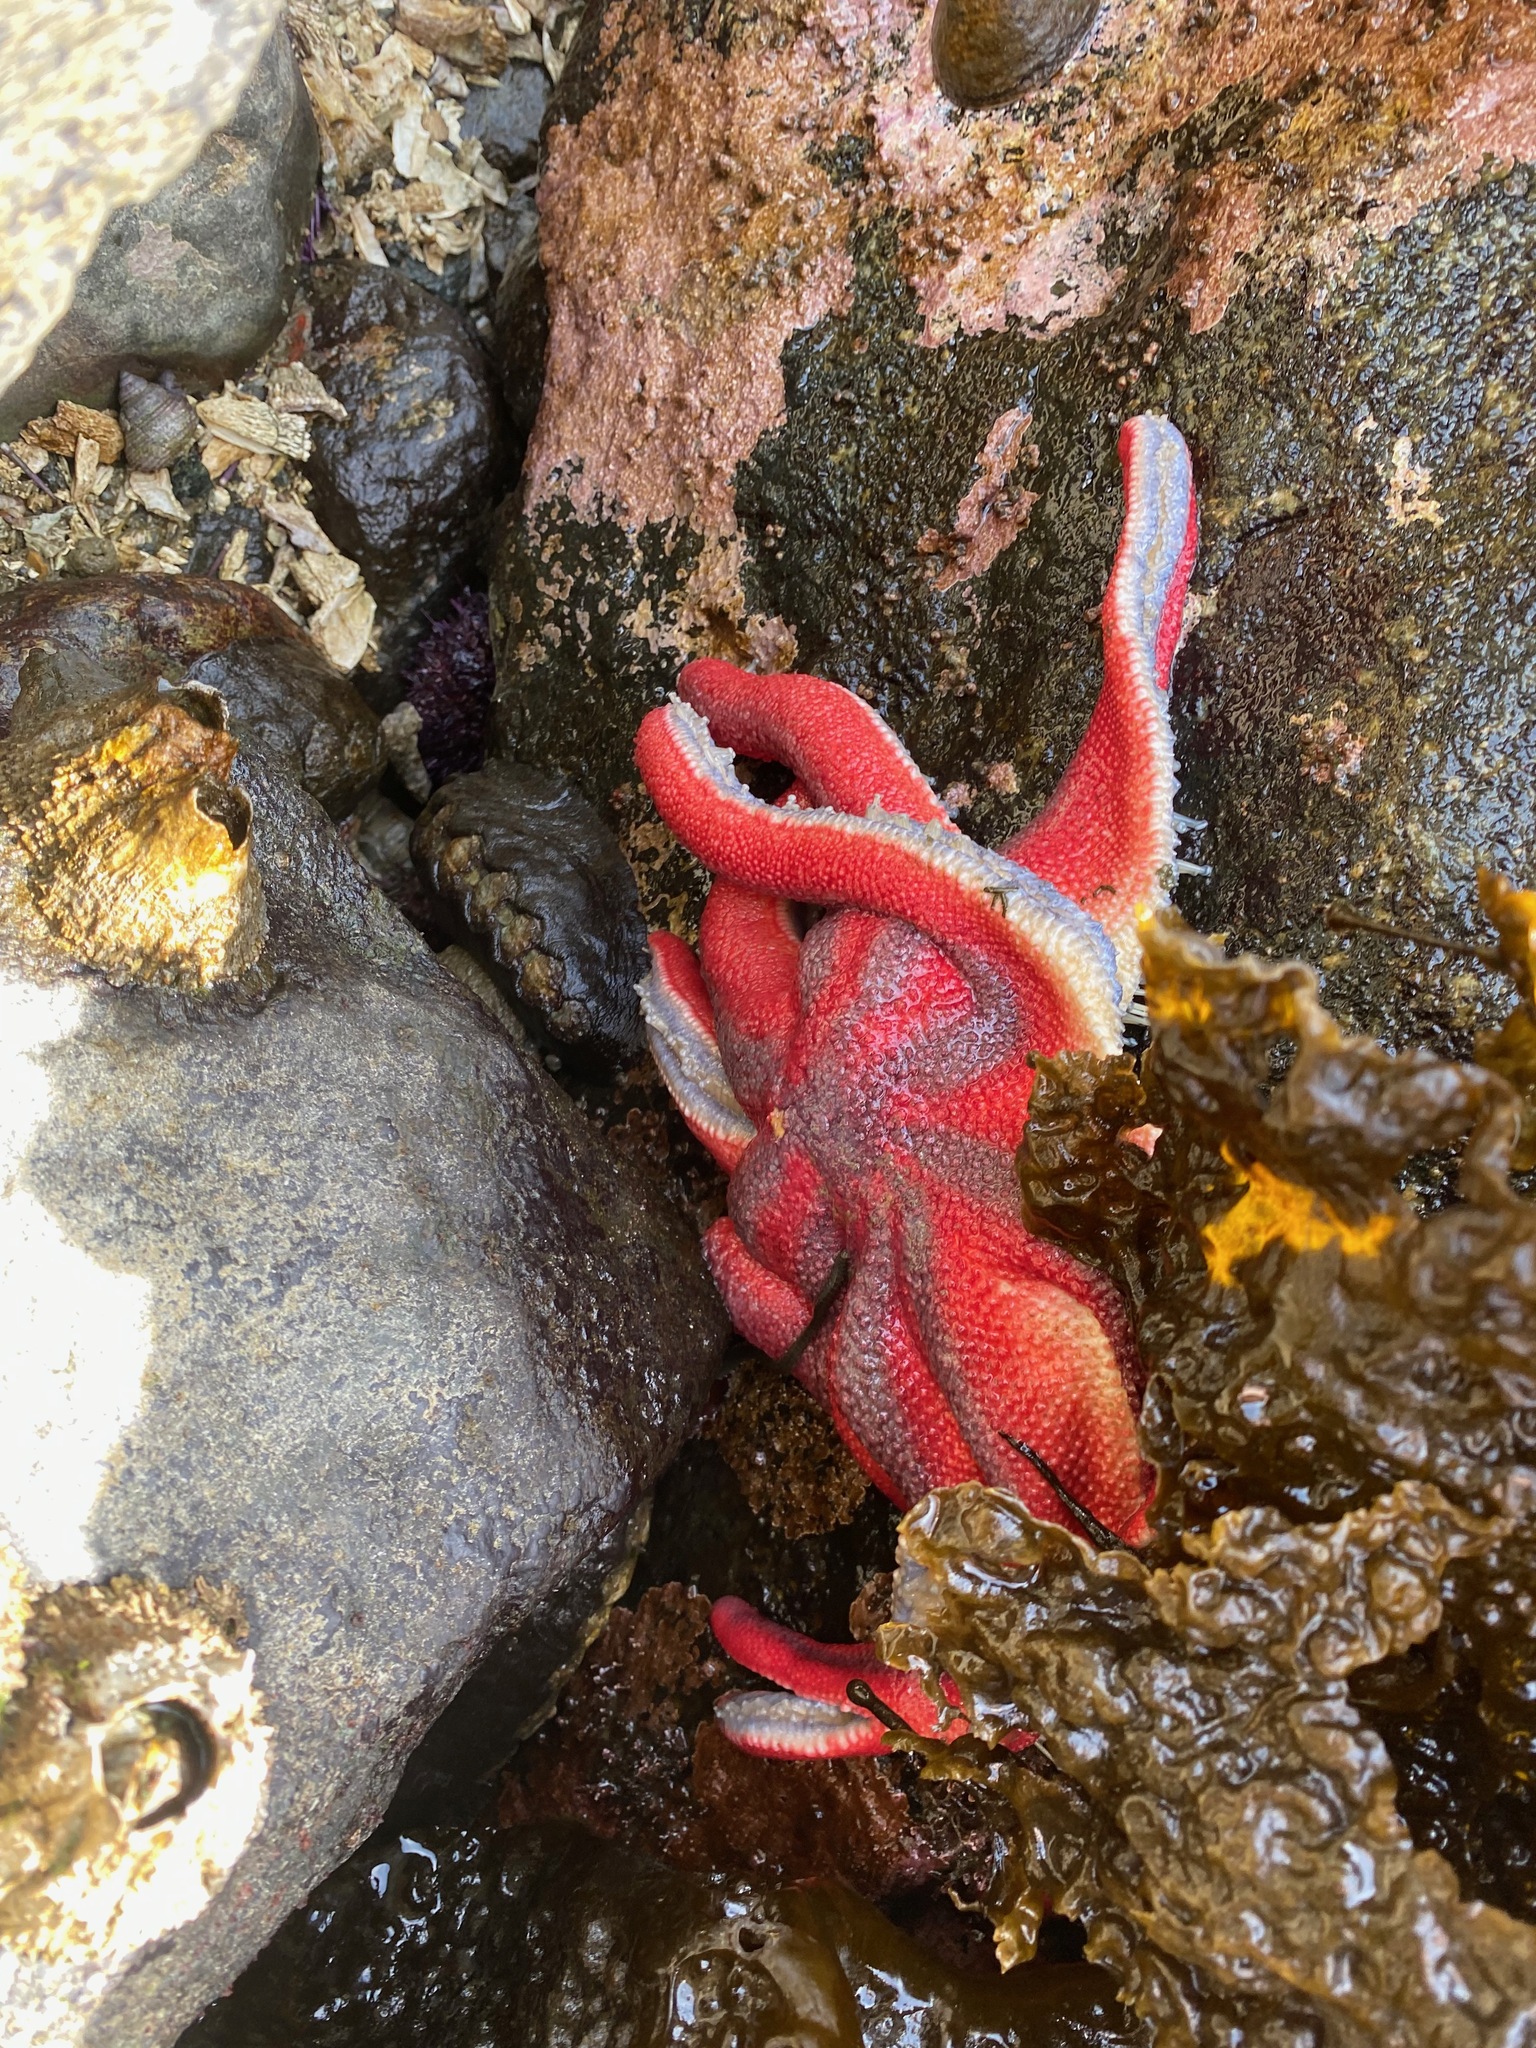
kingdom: Animalia
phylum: Echinodermata
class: Asteroidea
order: Valvatida
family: Solasteridae
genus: Solaster
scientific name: Solaster stimpsoni
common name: Orange sun star
